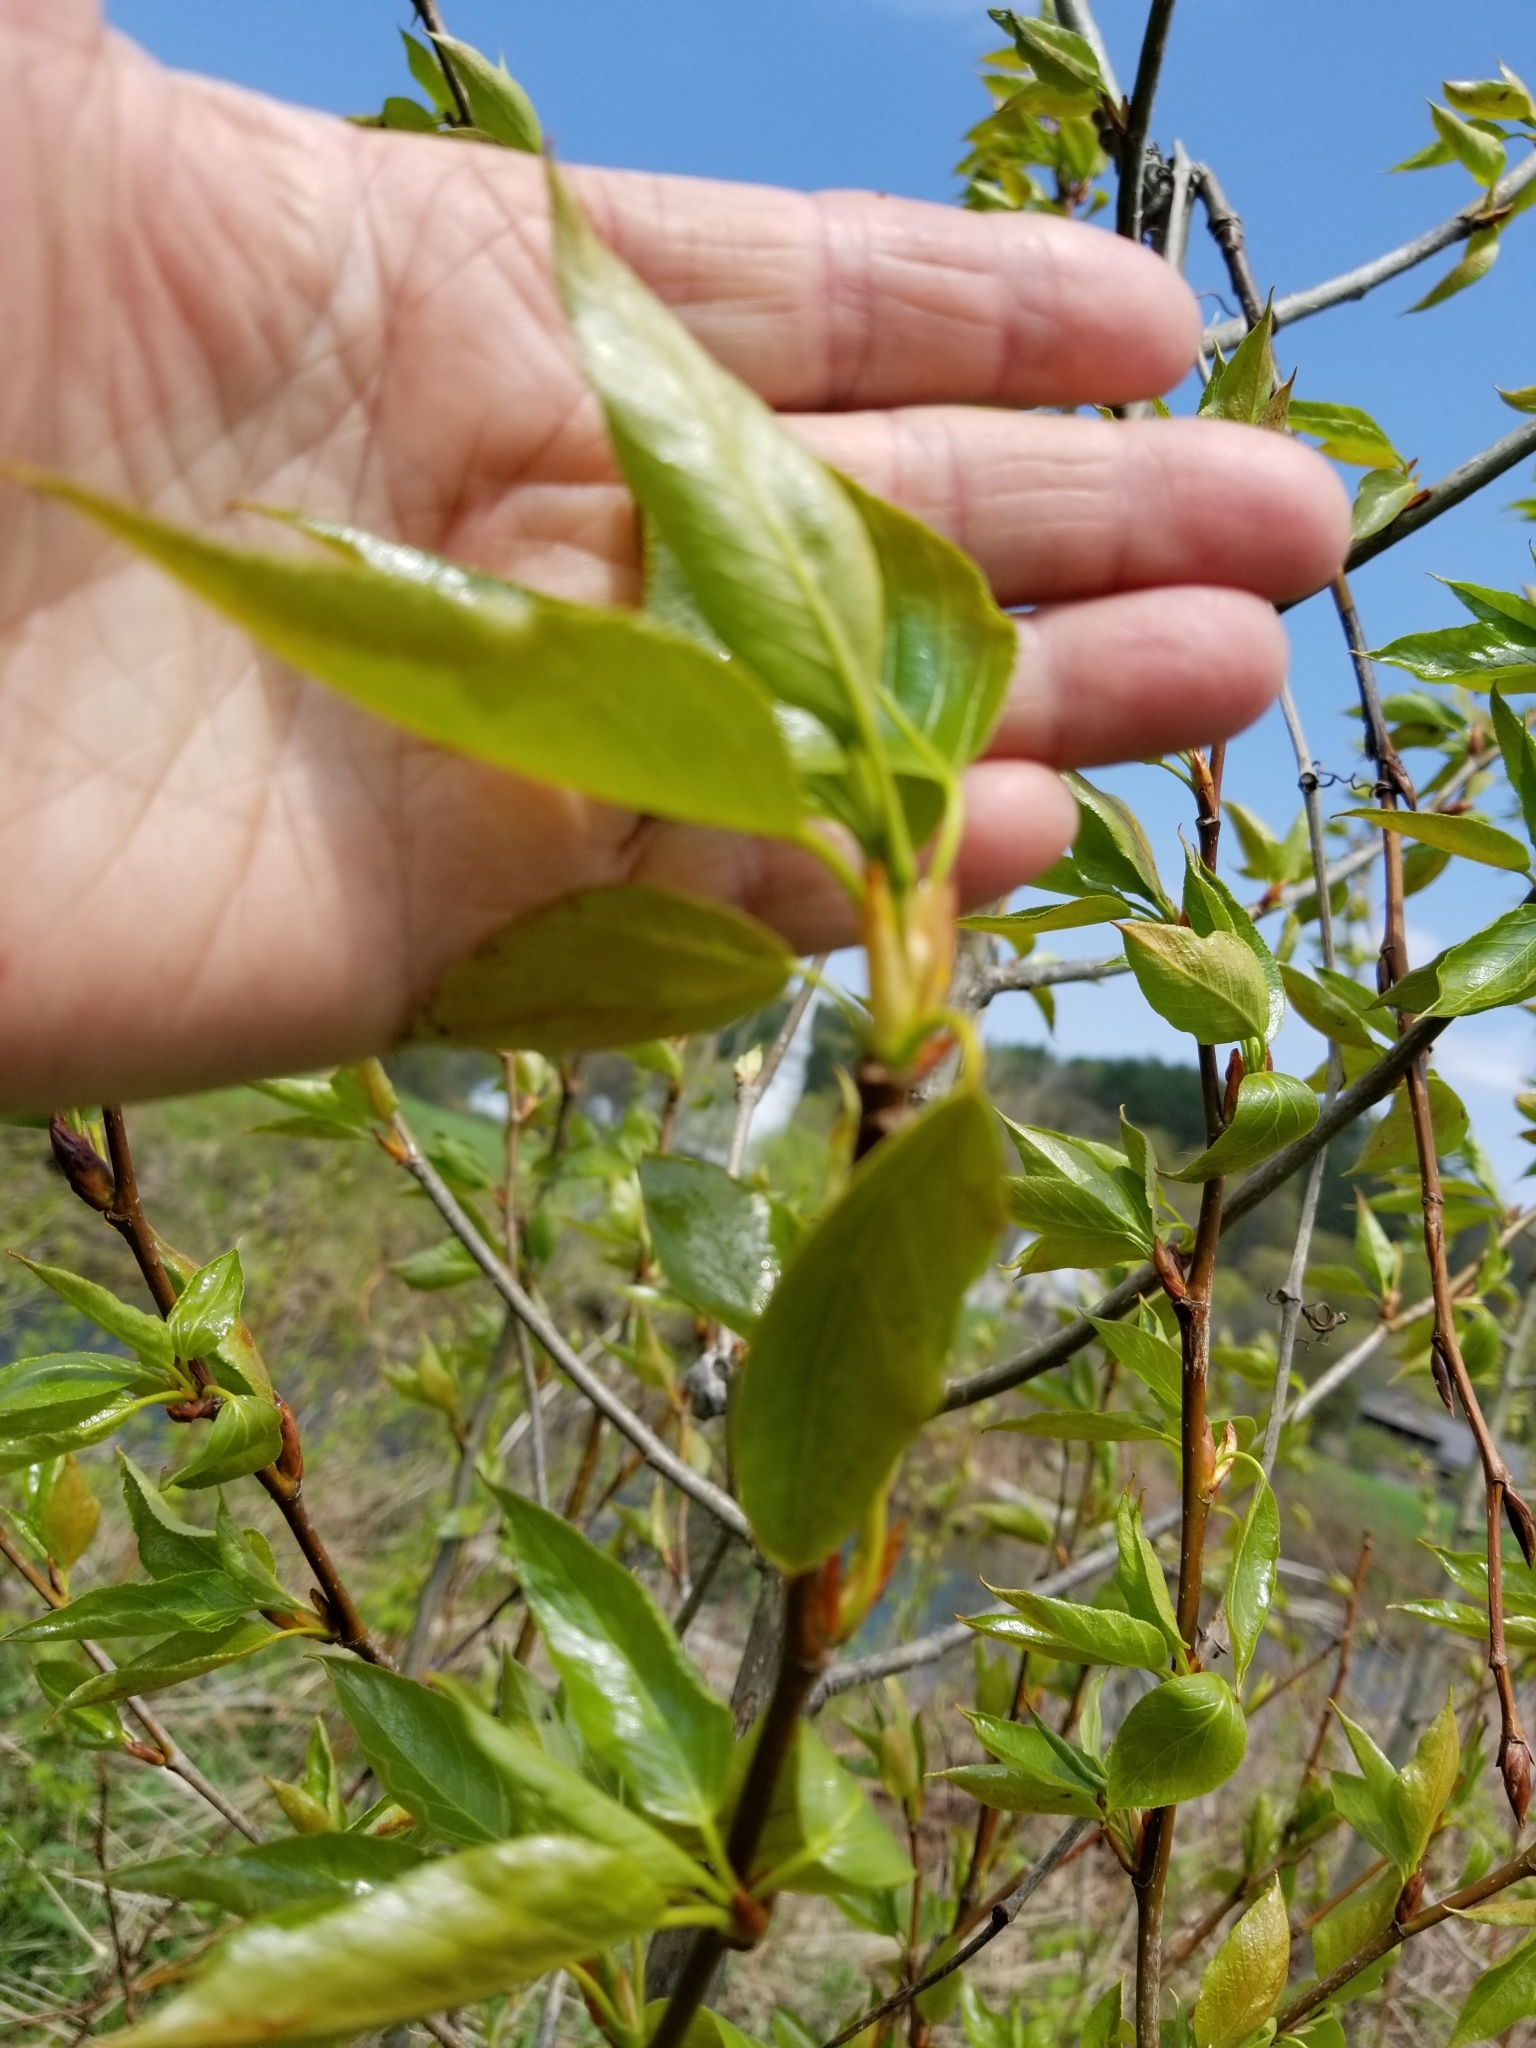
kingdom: Plantae
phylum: Tracheophyta
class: Magnoliopsida
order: Malpighiales
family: Salicaceae
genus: Populus
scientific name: Populus balsamifera
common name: Balsam poplar
